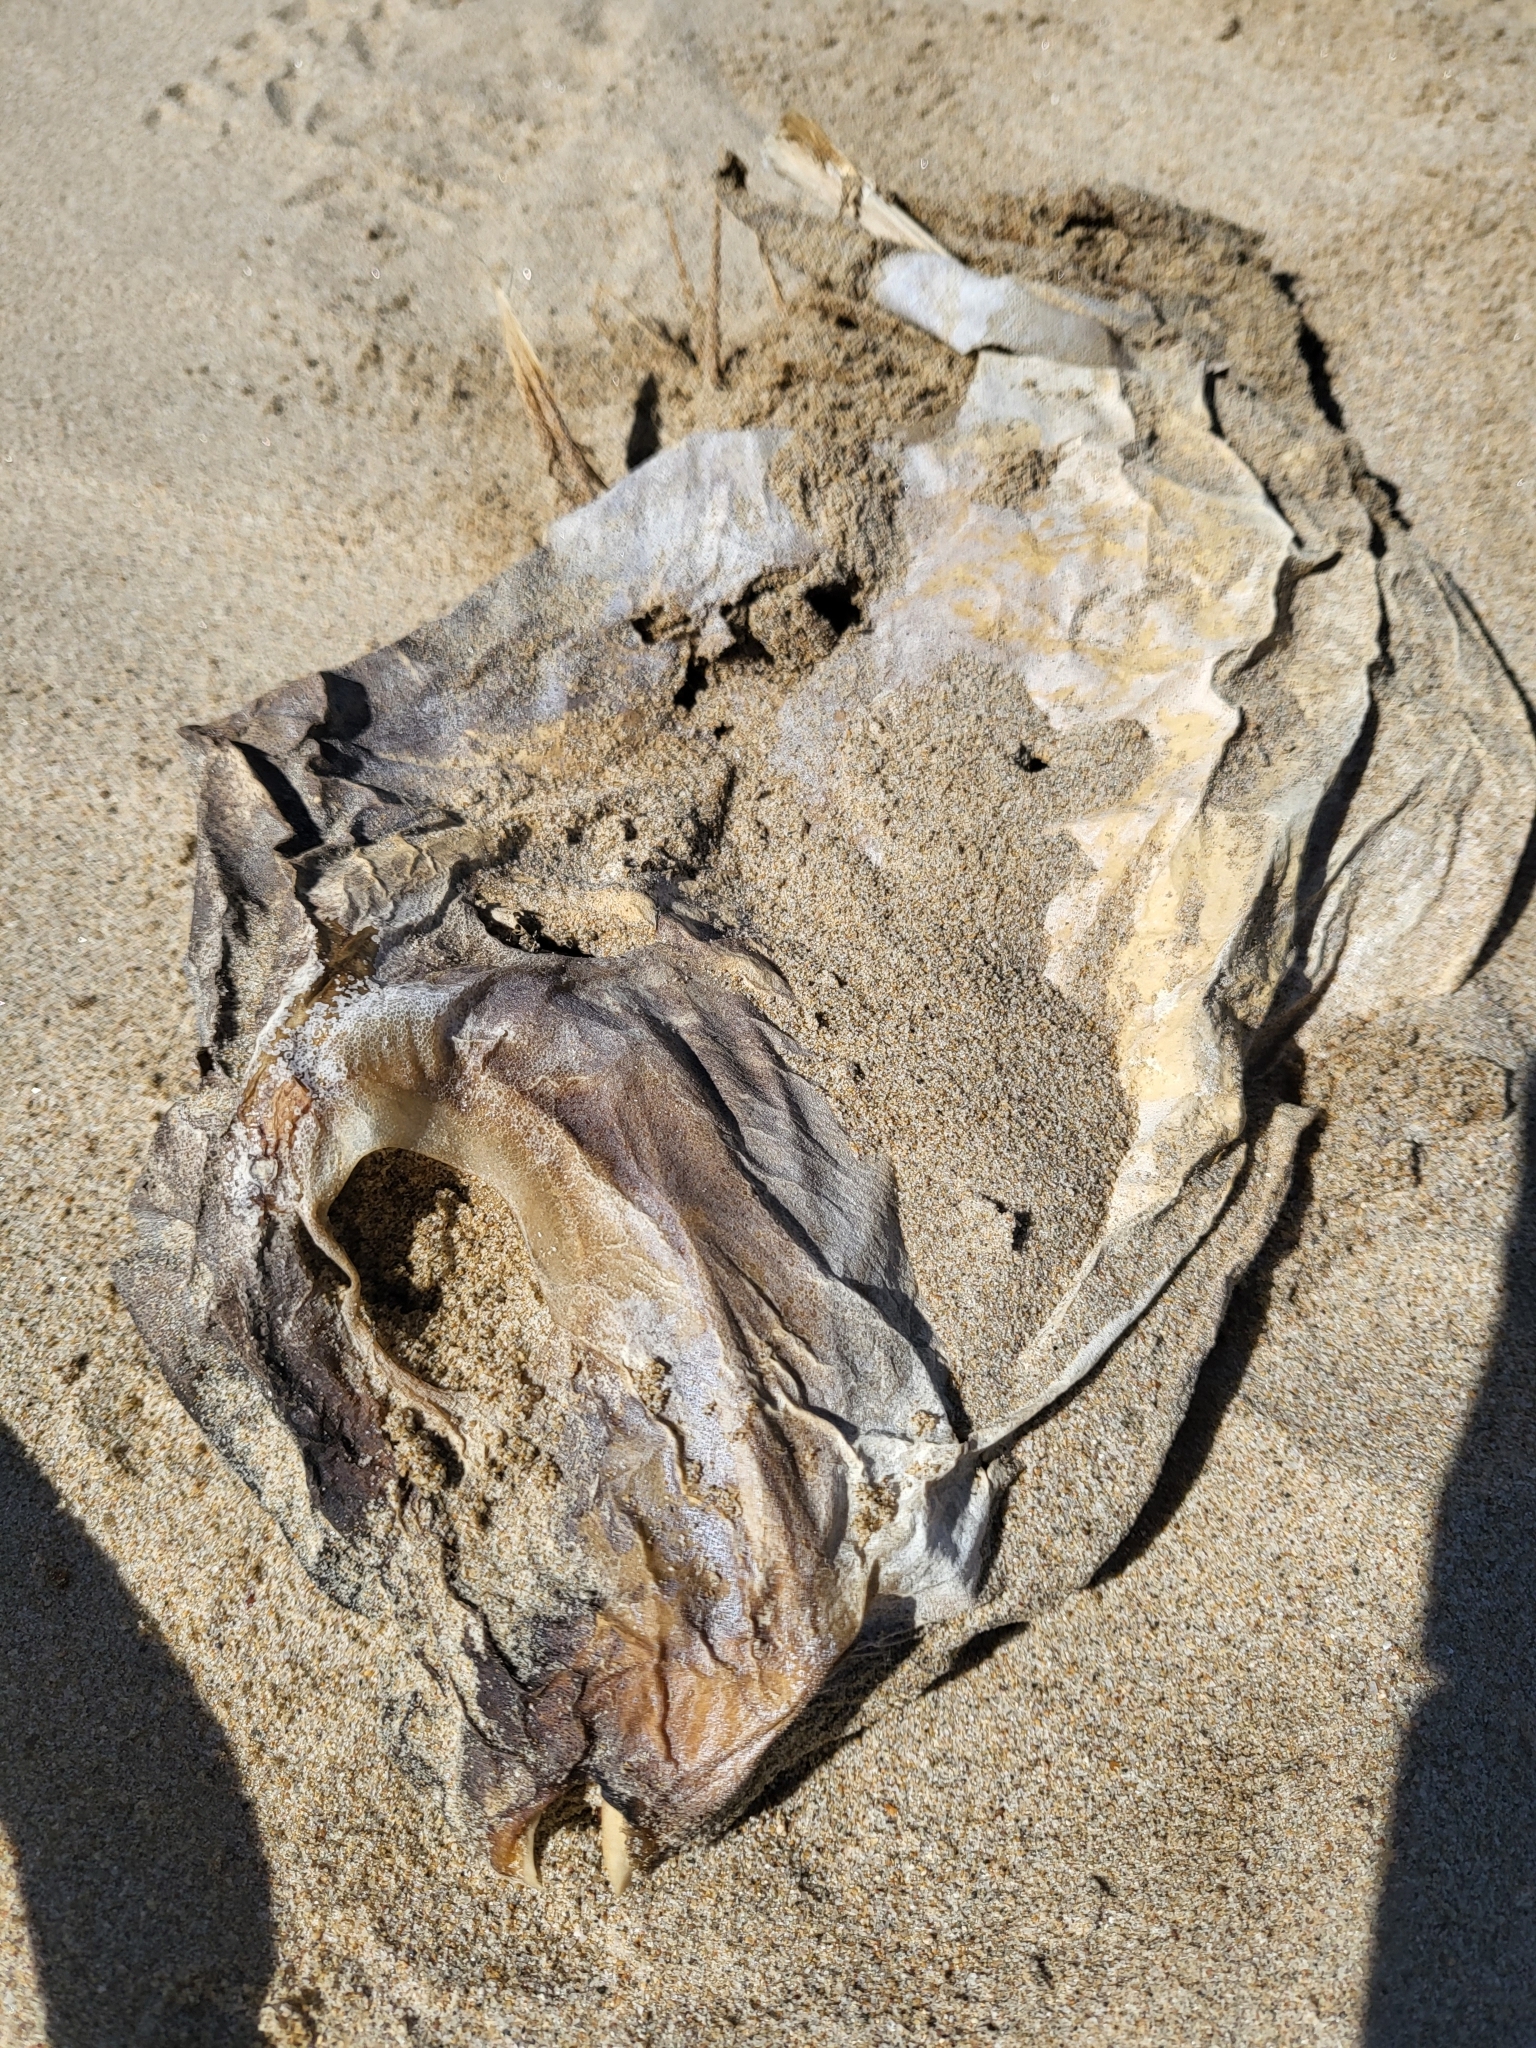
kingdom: Animalia
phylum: Chordata
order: Tetraodontiformes
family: Molidae
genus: Mola
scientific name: Mola mola
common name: Ocean sunfish
